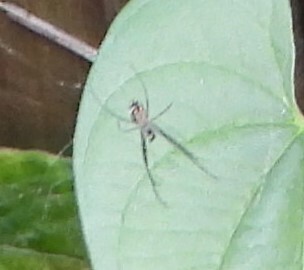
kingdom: Animalia
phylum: Arthropoda
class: Arachnida
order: Araneae
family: Tetragnathidae
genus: Leucauge
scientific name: Leucauge argyra
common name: Longjawed orb weavers
